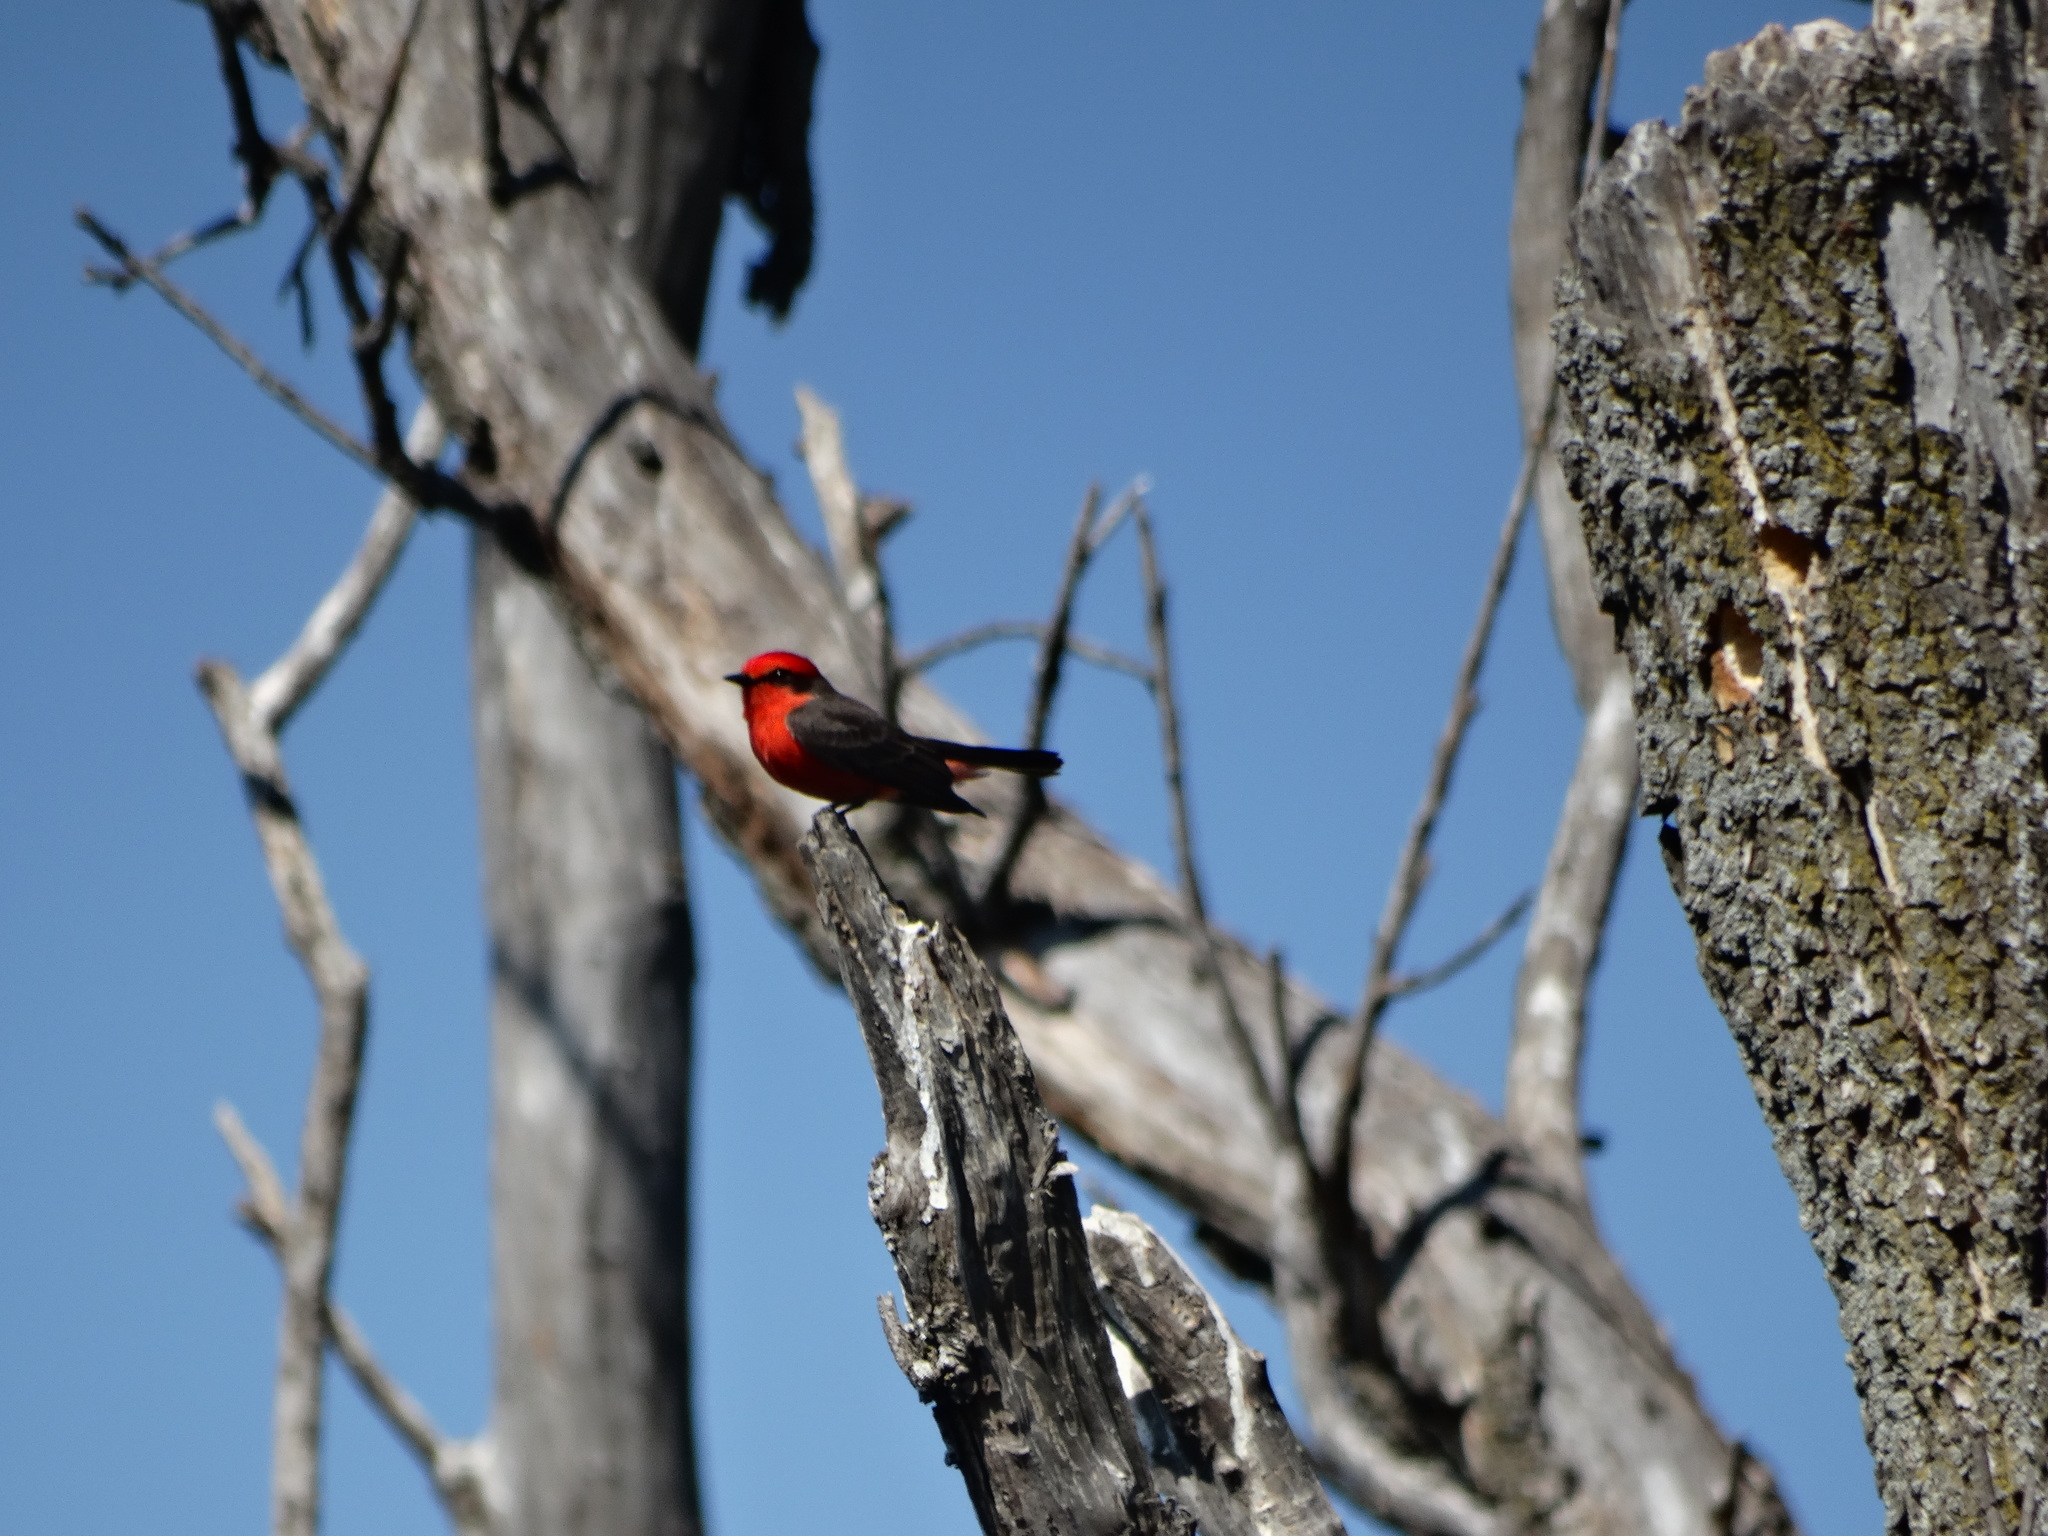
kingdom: Animalia
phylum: Chordata
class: Aves
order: Passeriformes
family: Tyrannidae
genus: Pyrocephalus
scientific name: Pyrocephalus rubinus
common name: Vermilion flycatcher
